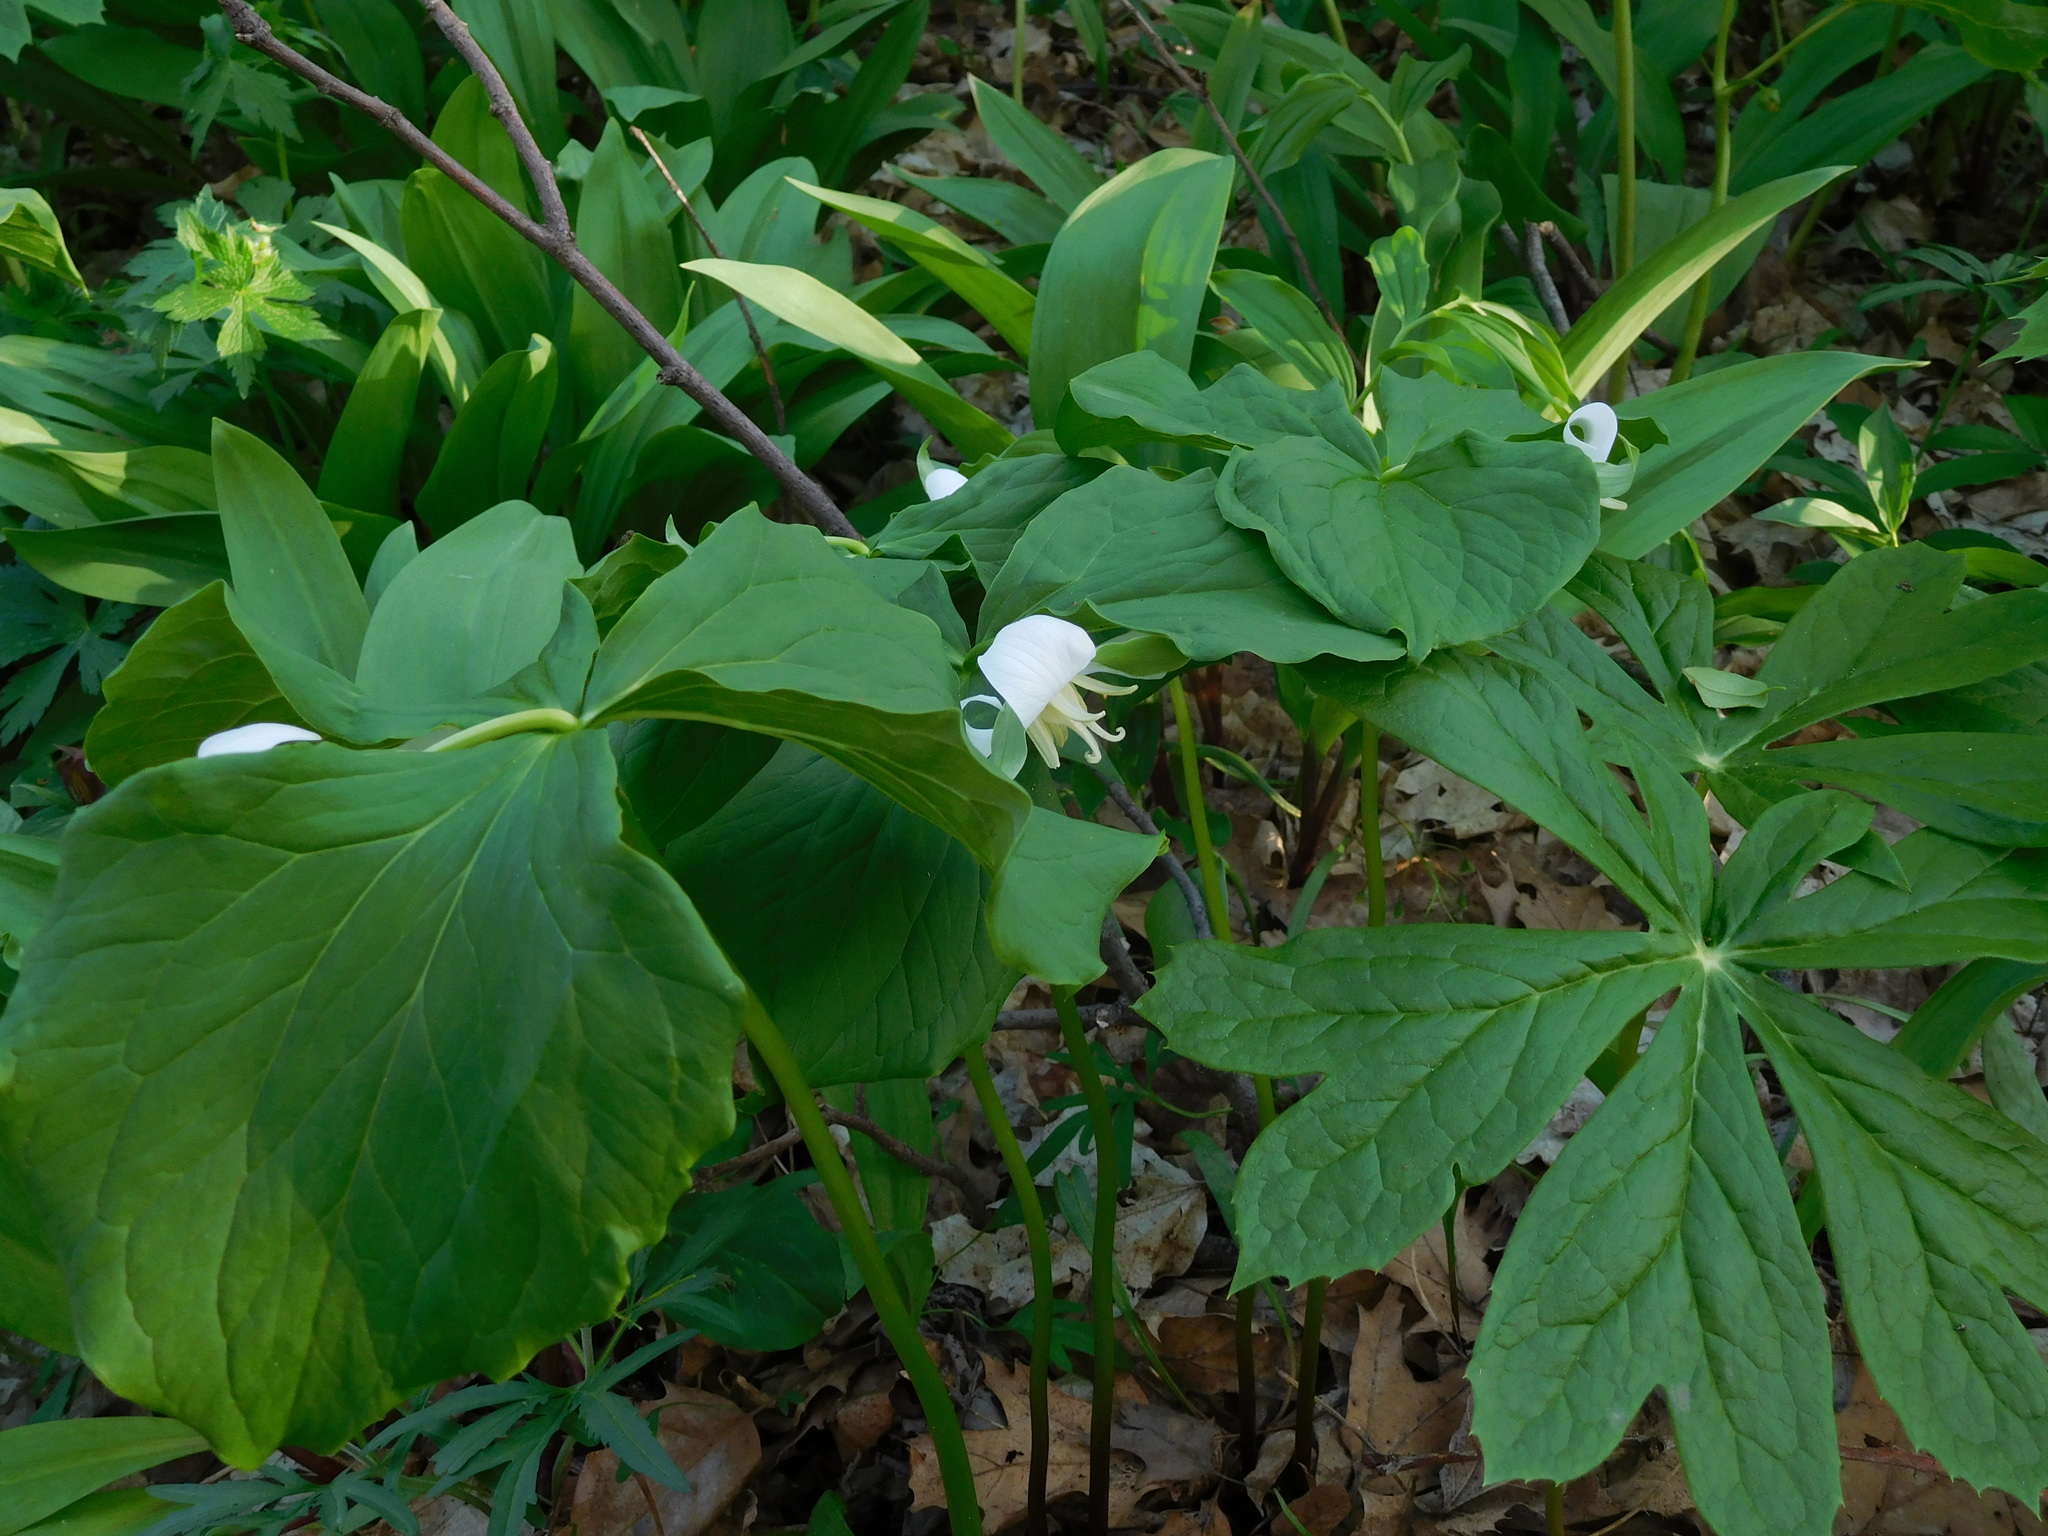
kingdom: Plantae
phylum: Tracheophyta
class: Liliopsida
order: Liliales
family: Melanthiaceae
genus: Trillium
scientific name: Trillium flexipes
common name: Drooping trillium
